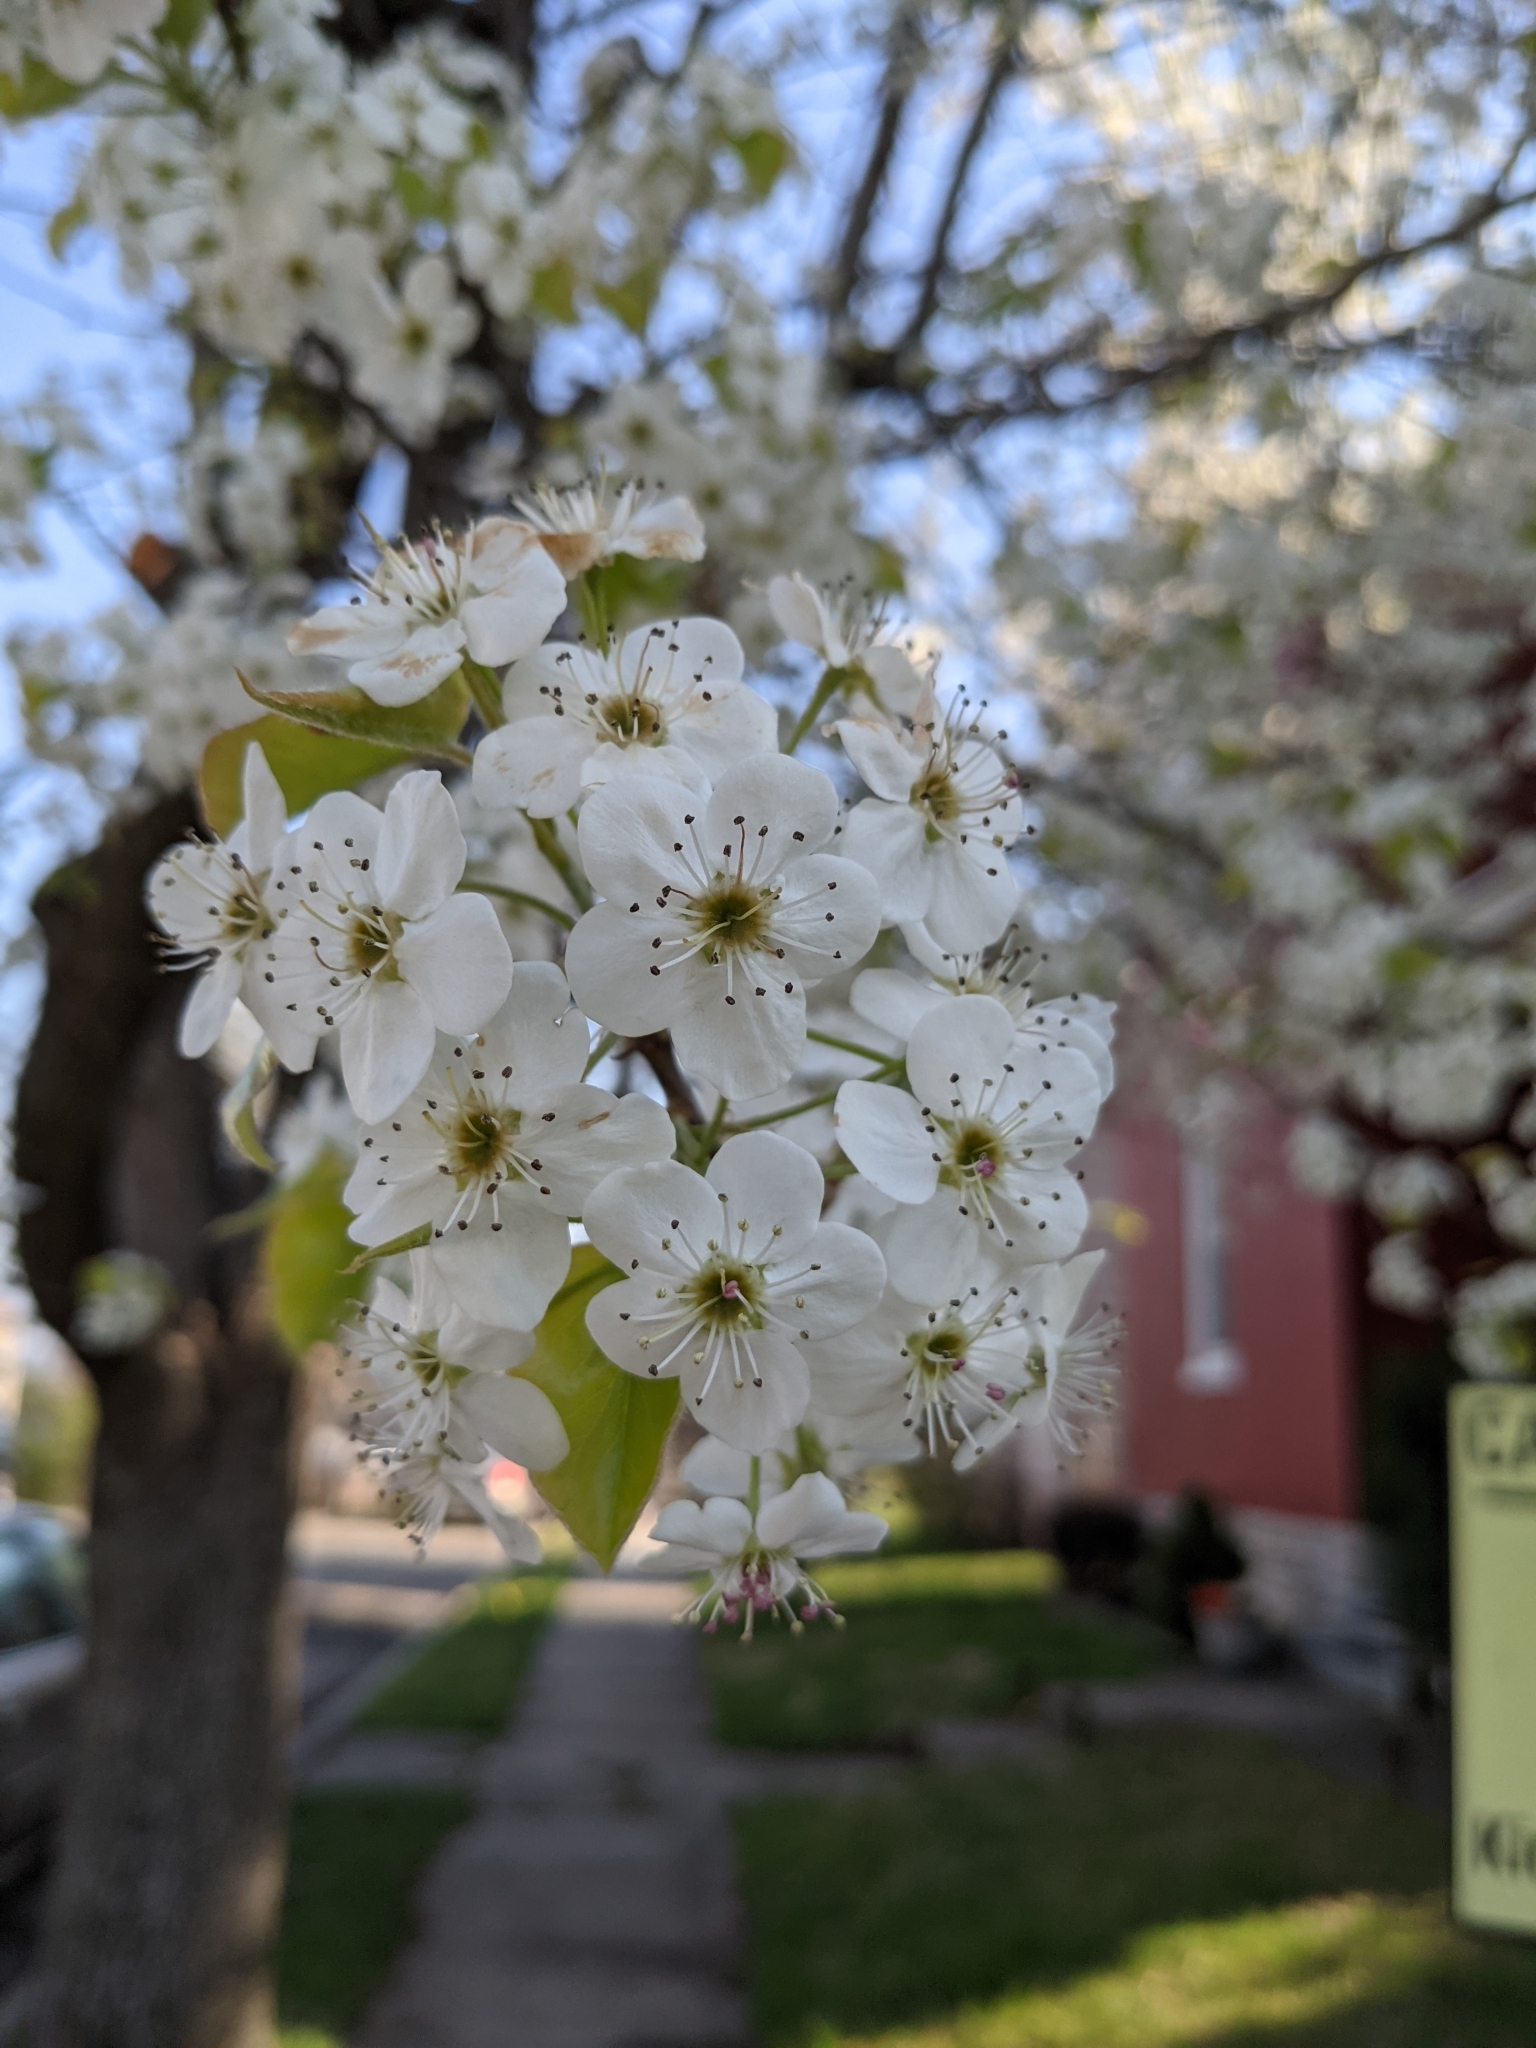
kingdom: Plantae
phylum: Tracheophyta
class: Magnoliopsida
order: Rosales
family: Rosaceae
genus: Pyrus
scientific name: Pyrus calleryana
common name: Callery pear
